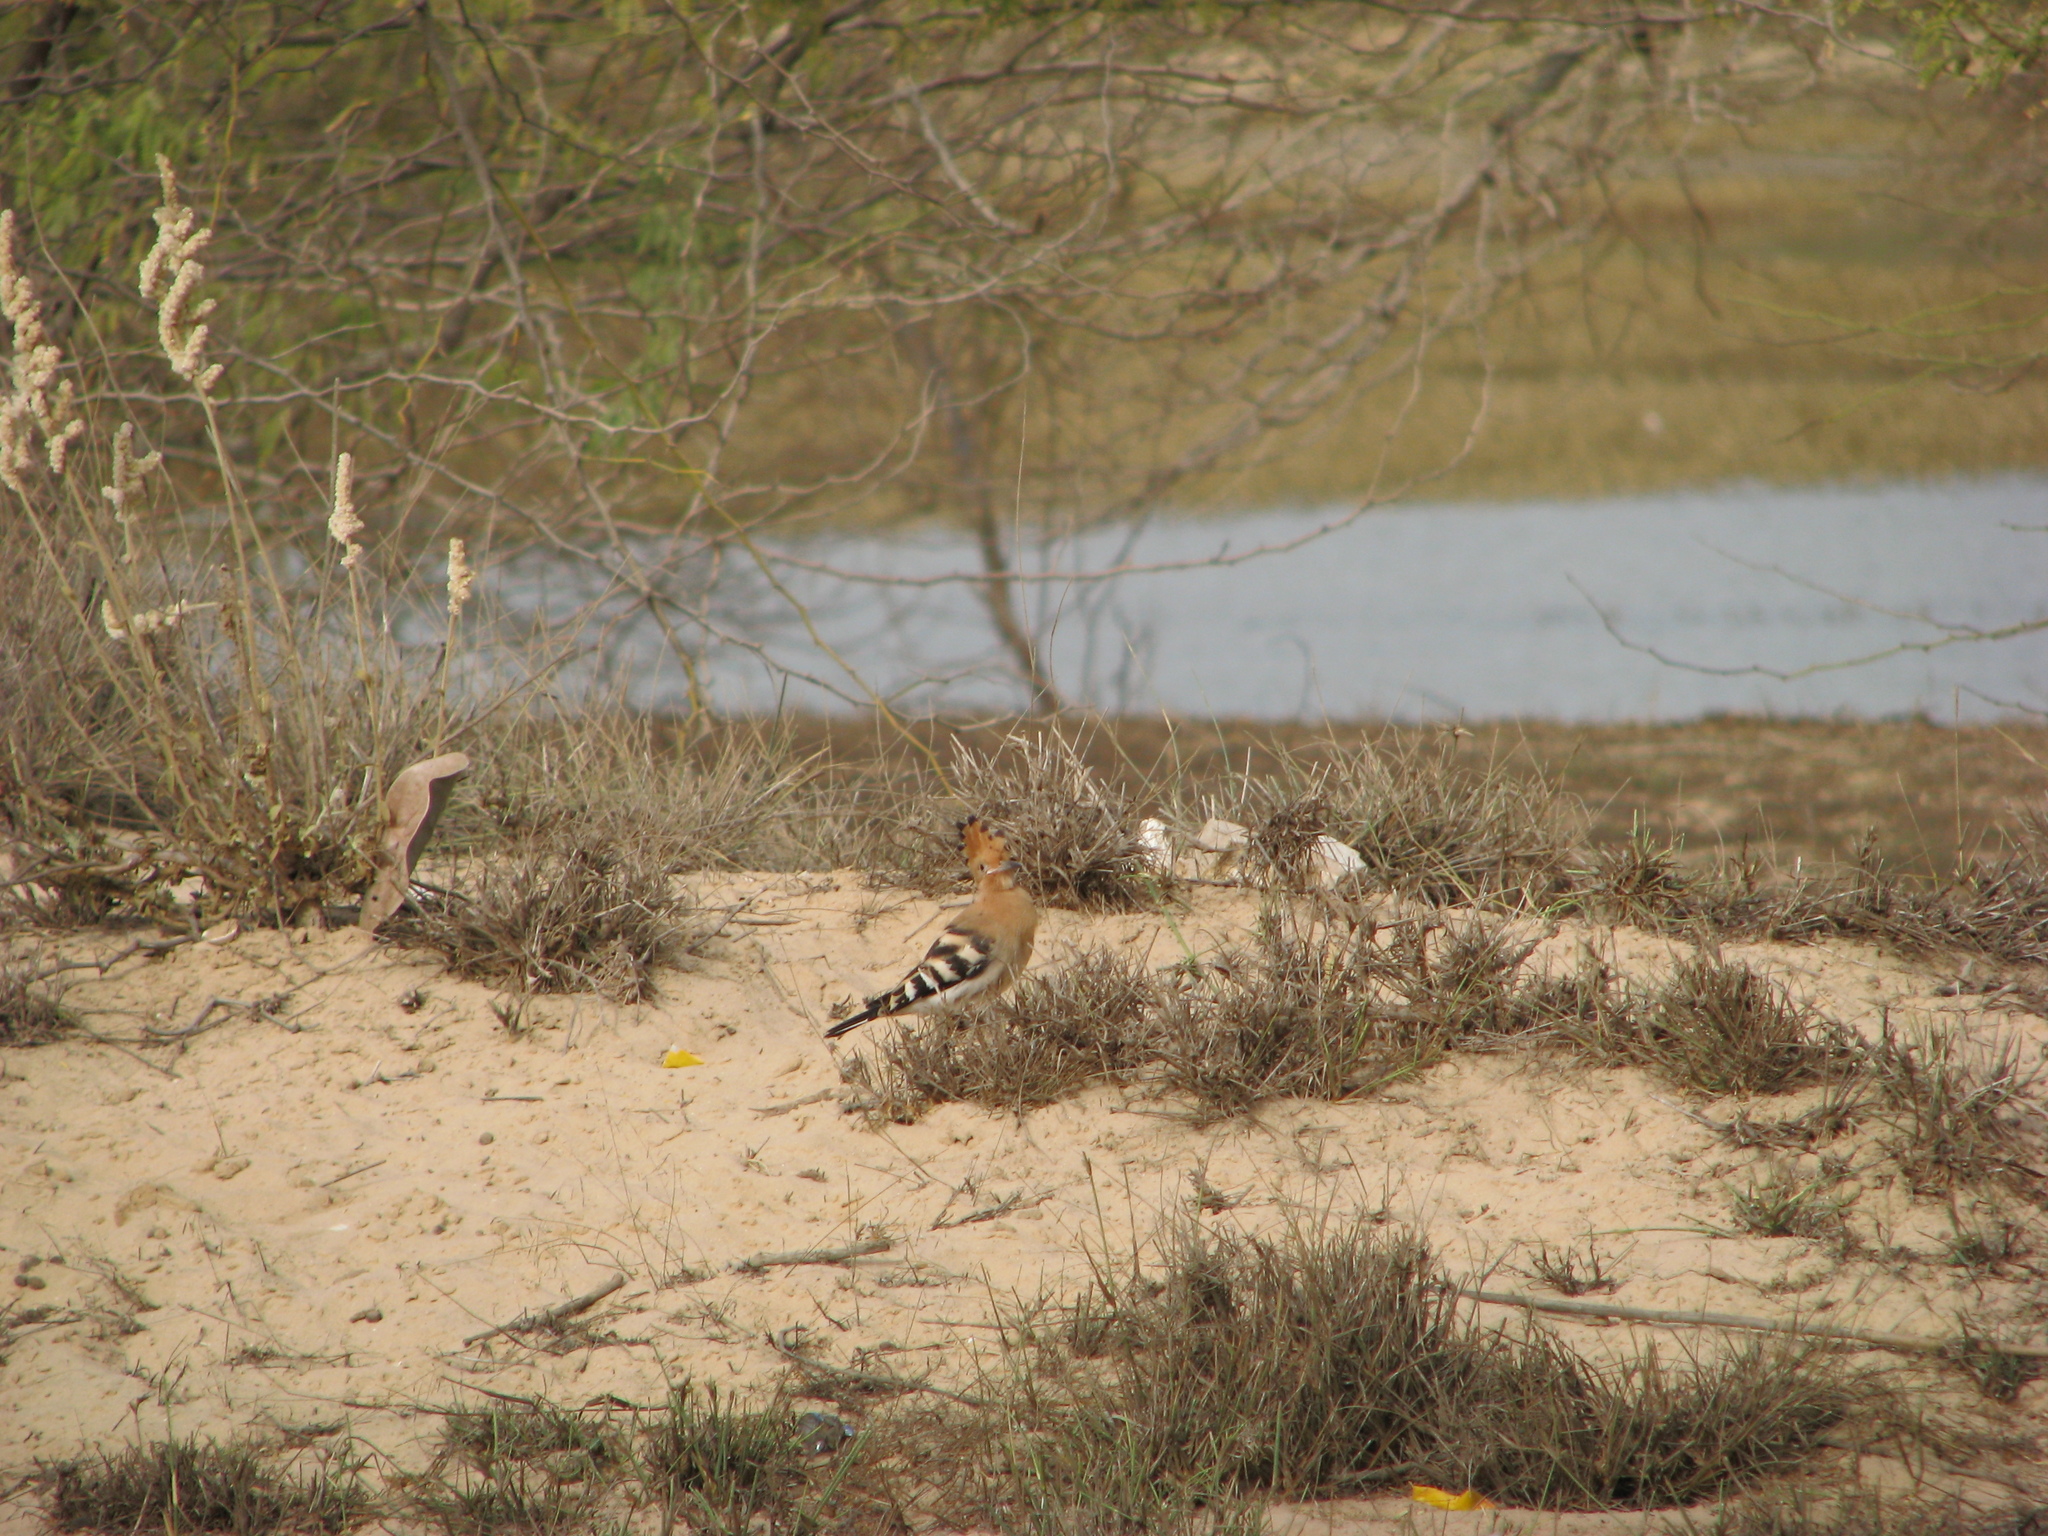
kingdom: Animalia
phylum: Chordata
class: Aves
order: Bucerotiformes
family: Upupidae
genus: Upupa
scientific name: Upupa epops
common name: Eurasian hoopoe
